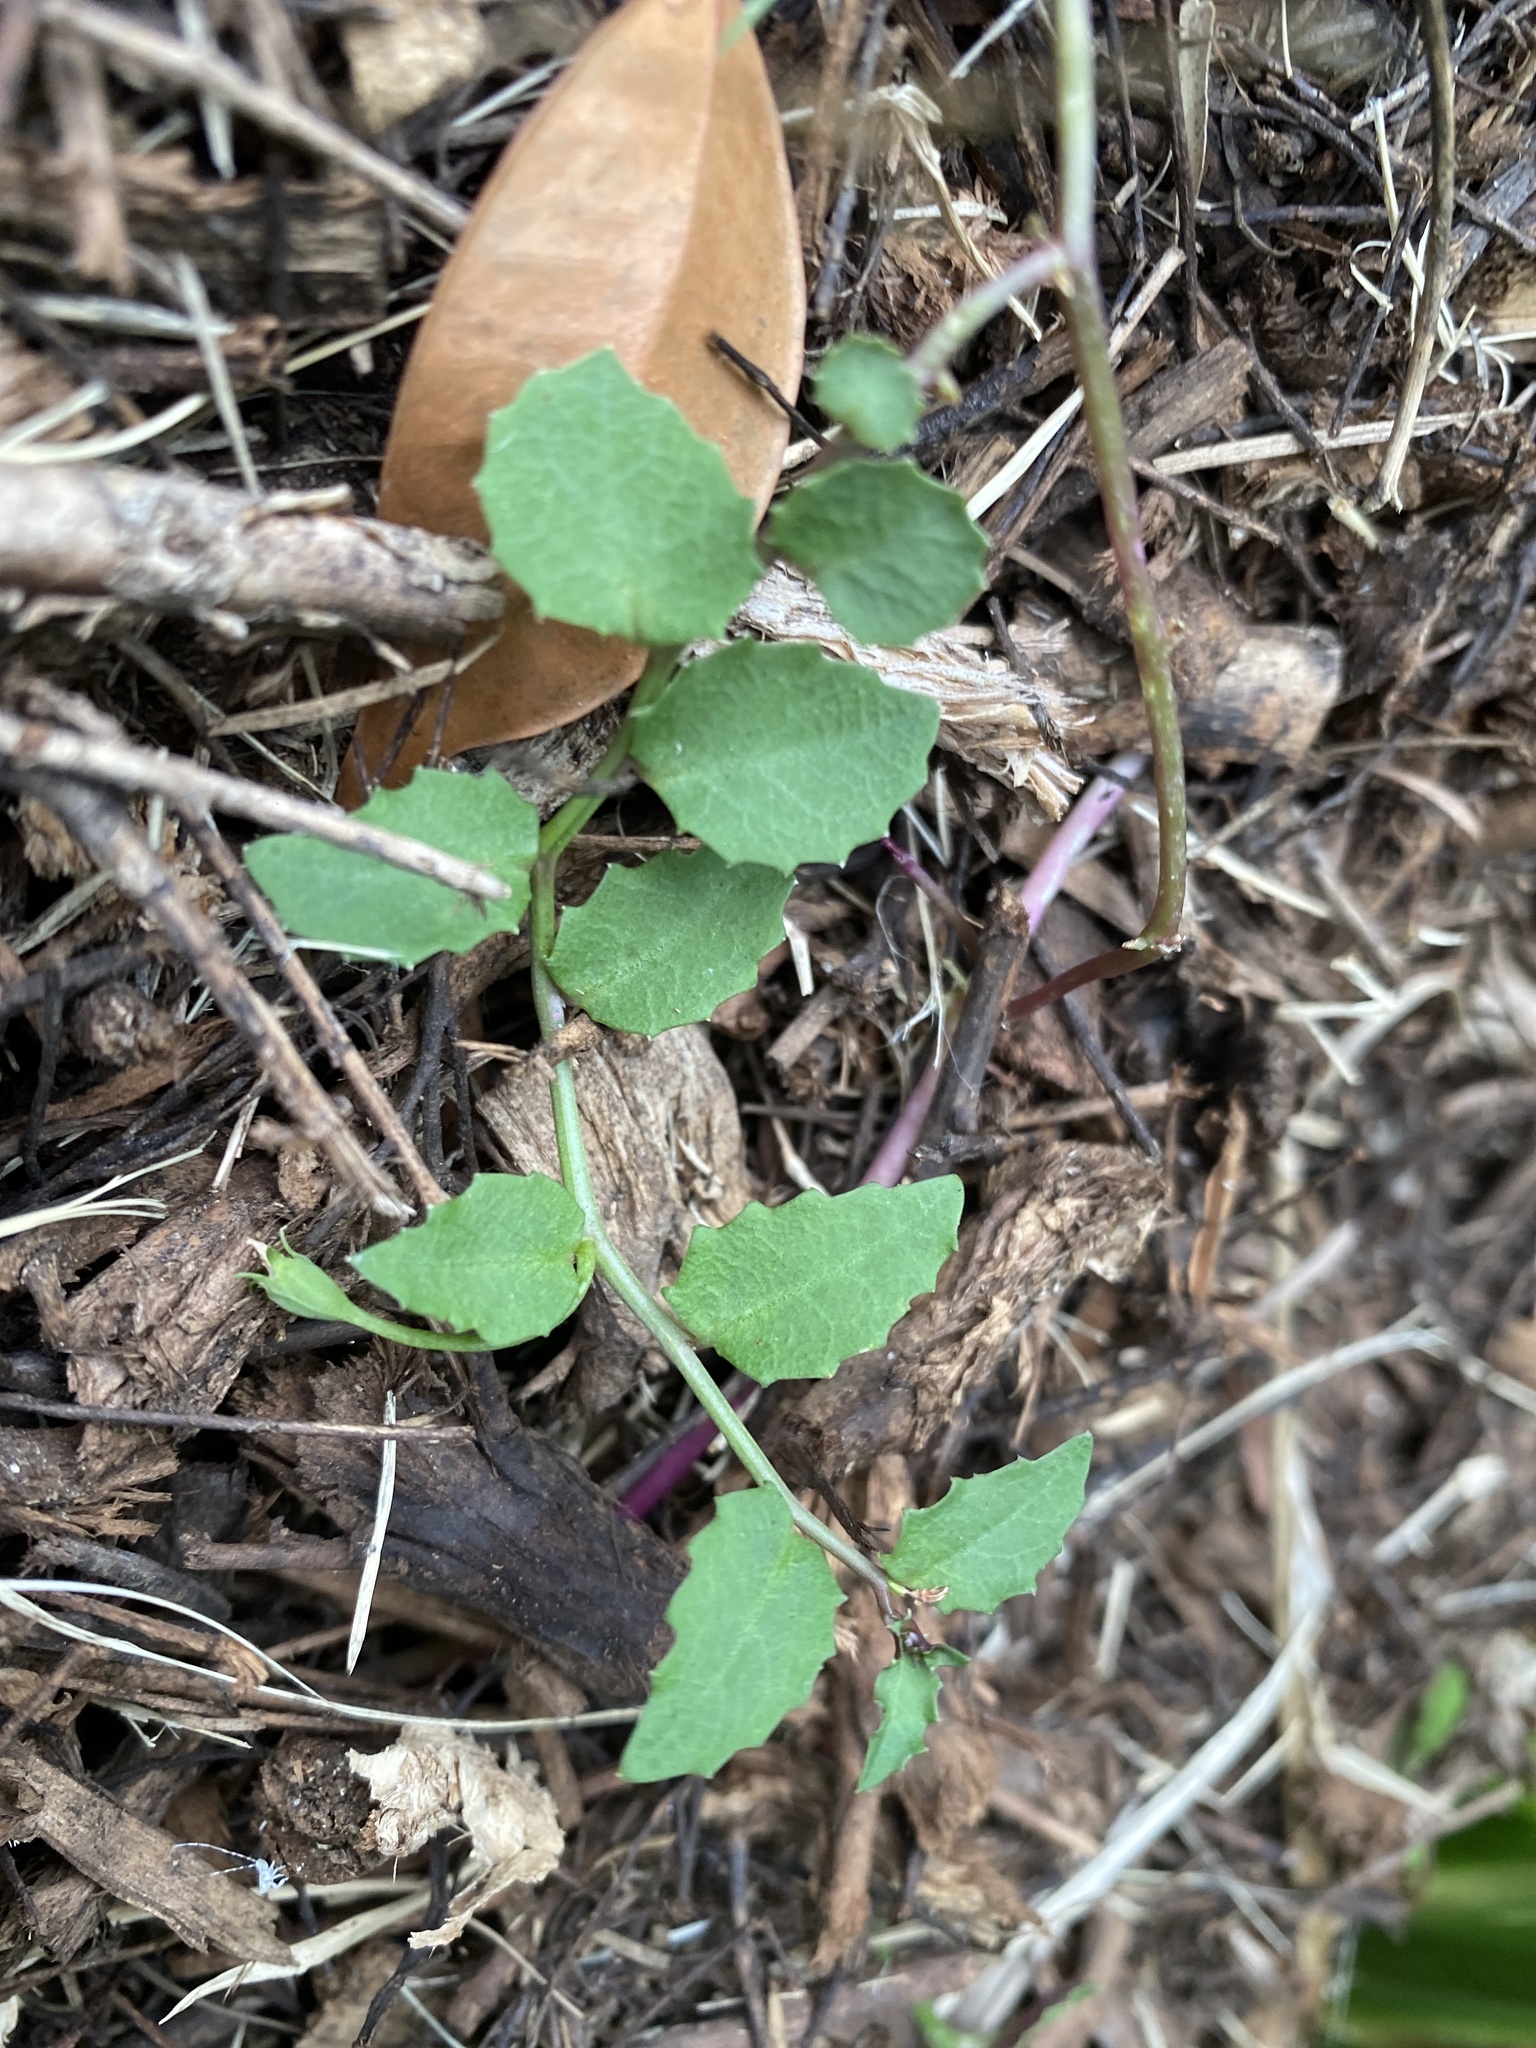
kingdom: Plantae
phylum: Tracheophyta
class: Magnoliopsida
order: Asterales
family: Campanulaceae
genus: Lobelia
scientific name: Lobelia purpurascens
